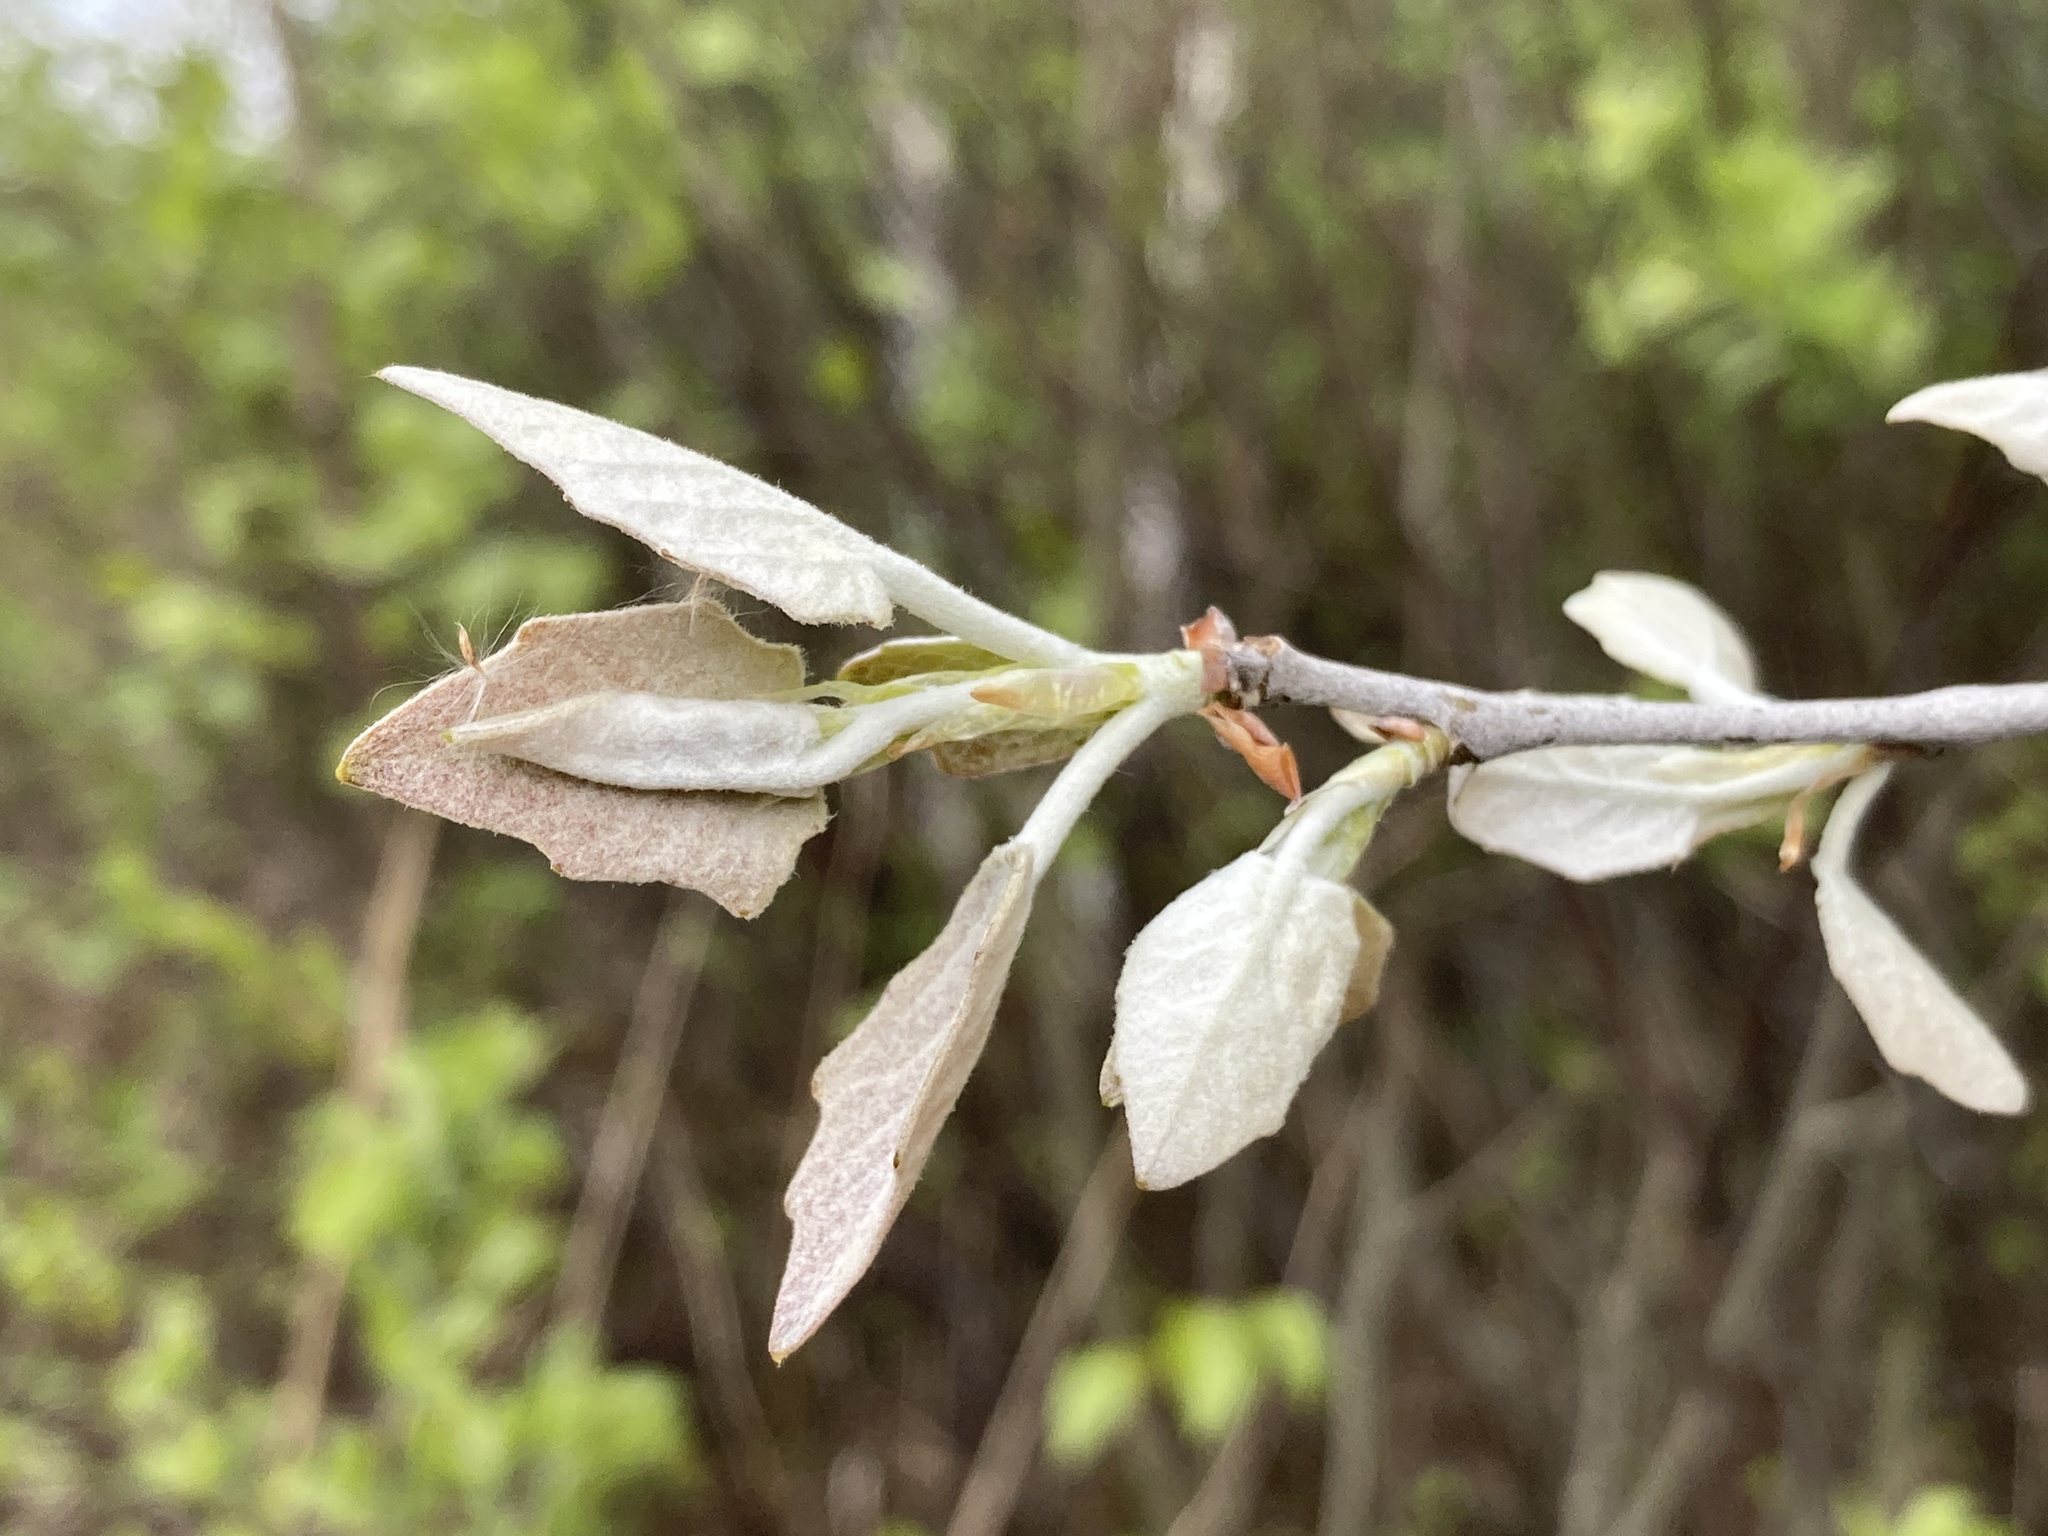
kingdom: Plantae
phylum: Tracheophyta
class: Magnoliopsida
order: Malpighiales
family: Salicaceae
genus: Populus
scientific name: Populus alba
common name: White poplar
